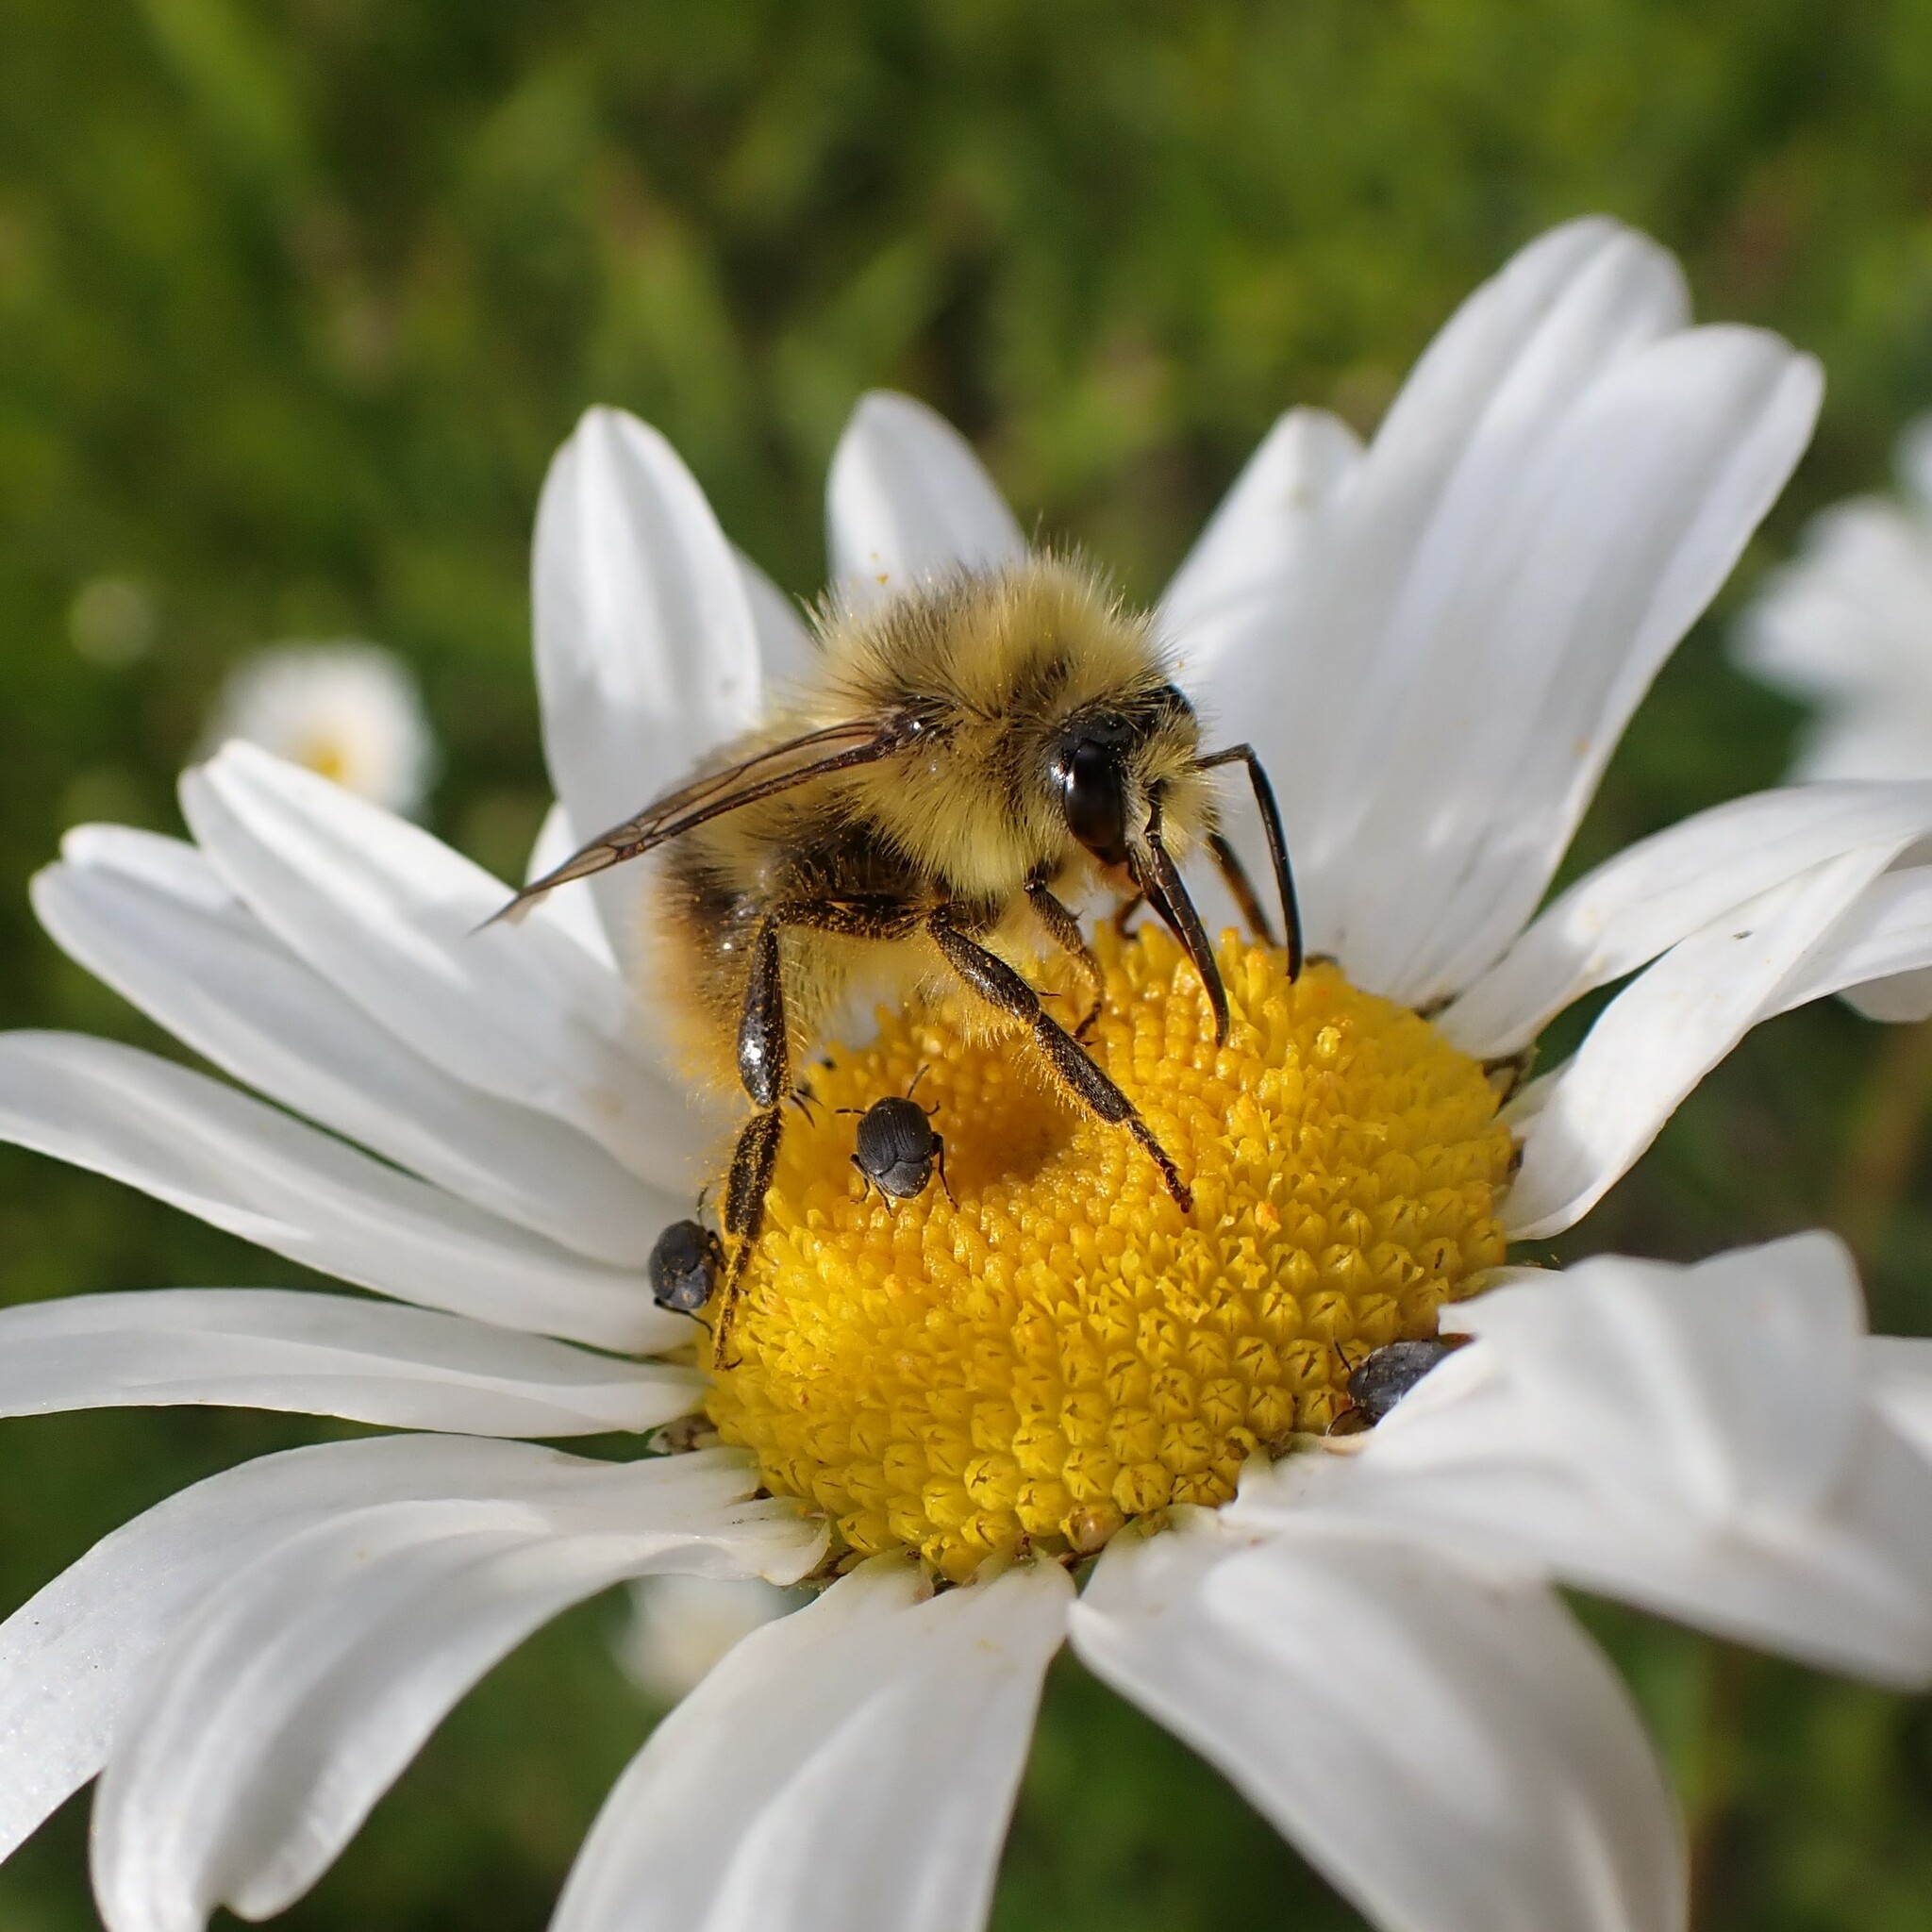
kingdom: Animalia
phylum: Arthropoda
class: Insecta
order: Hymenoptera
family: Apidae
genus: Bombus
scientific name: Bombus mixtus
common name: Fuzzy-horned bumble bee
